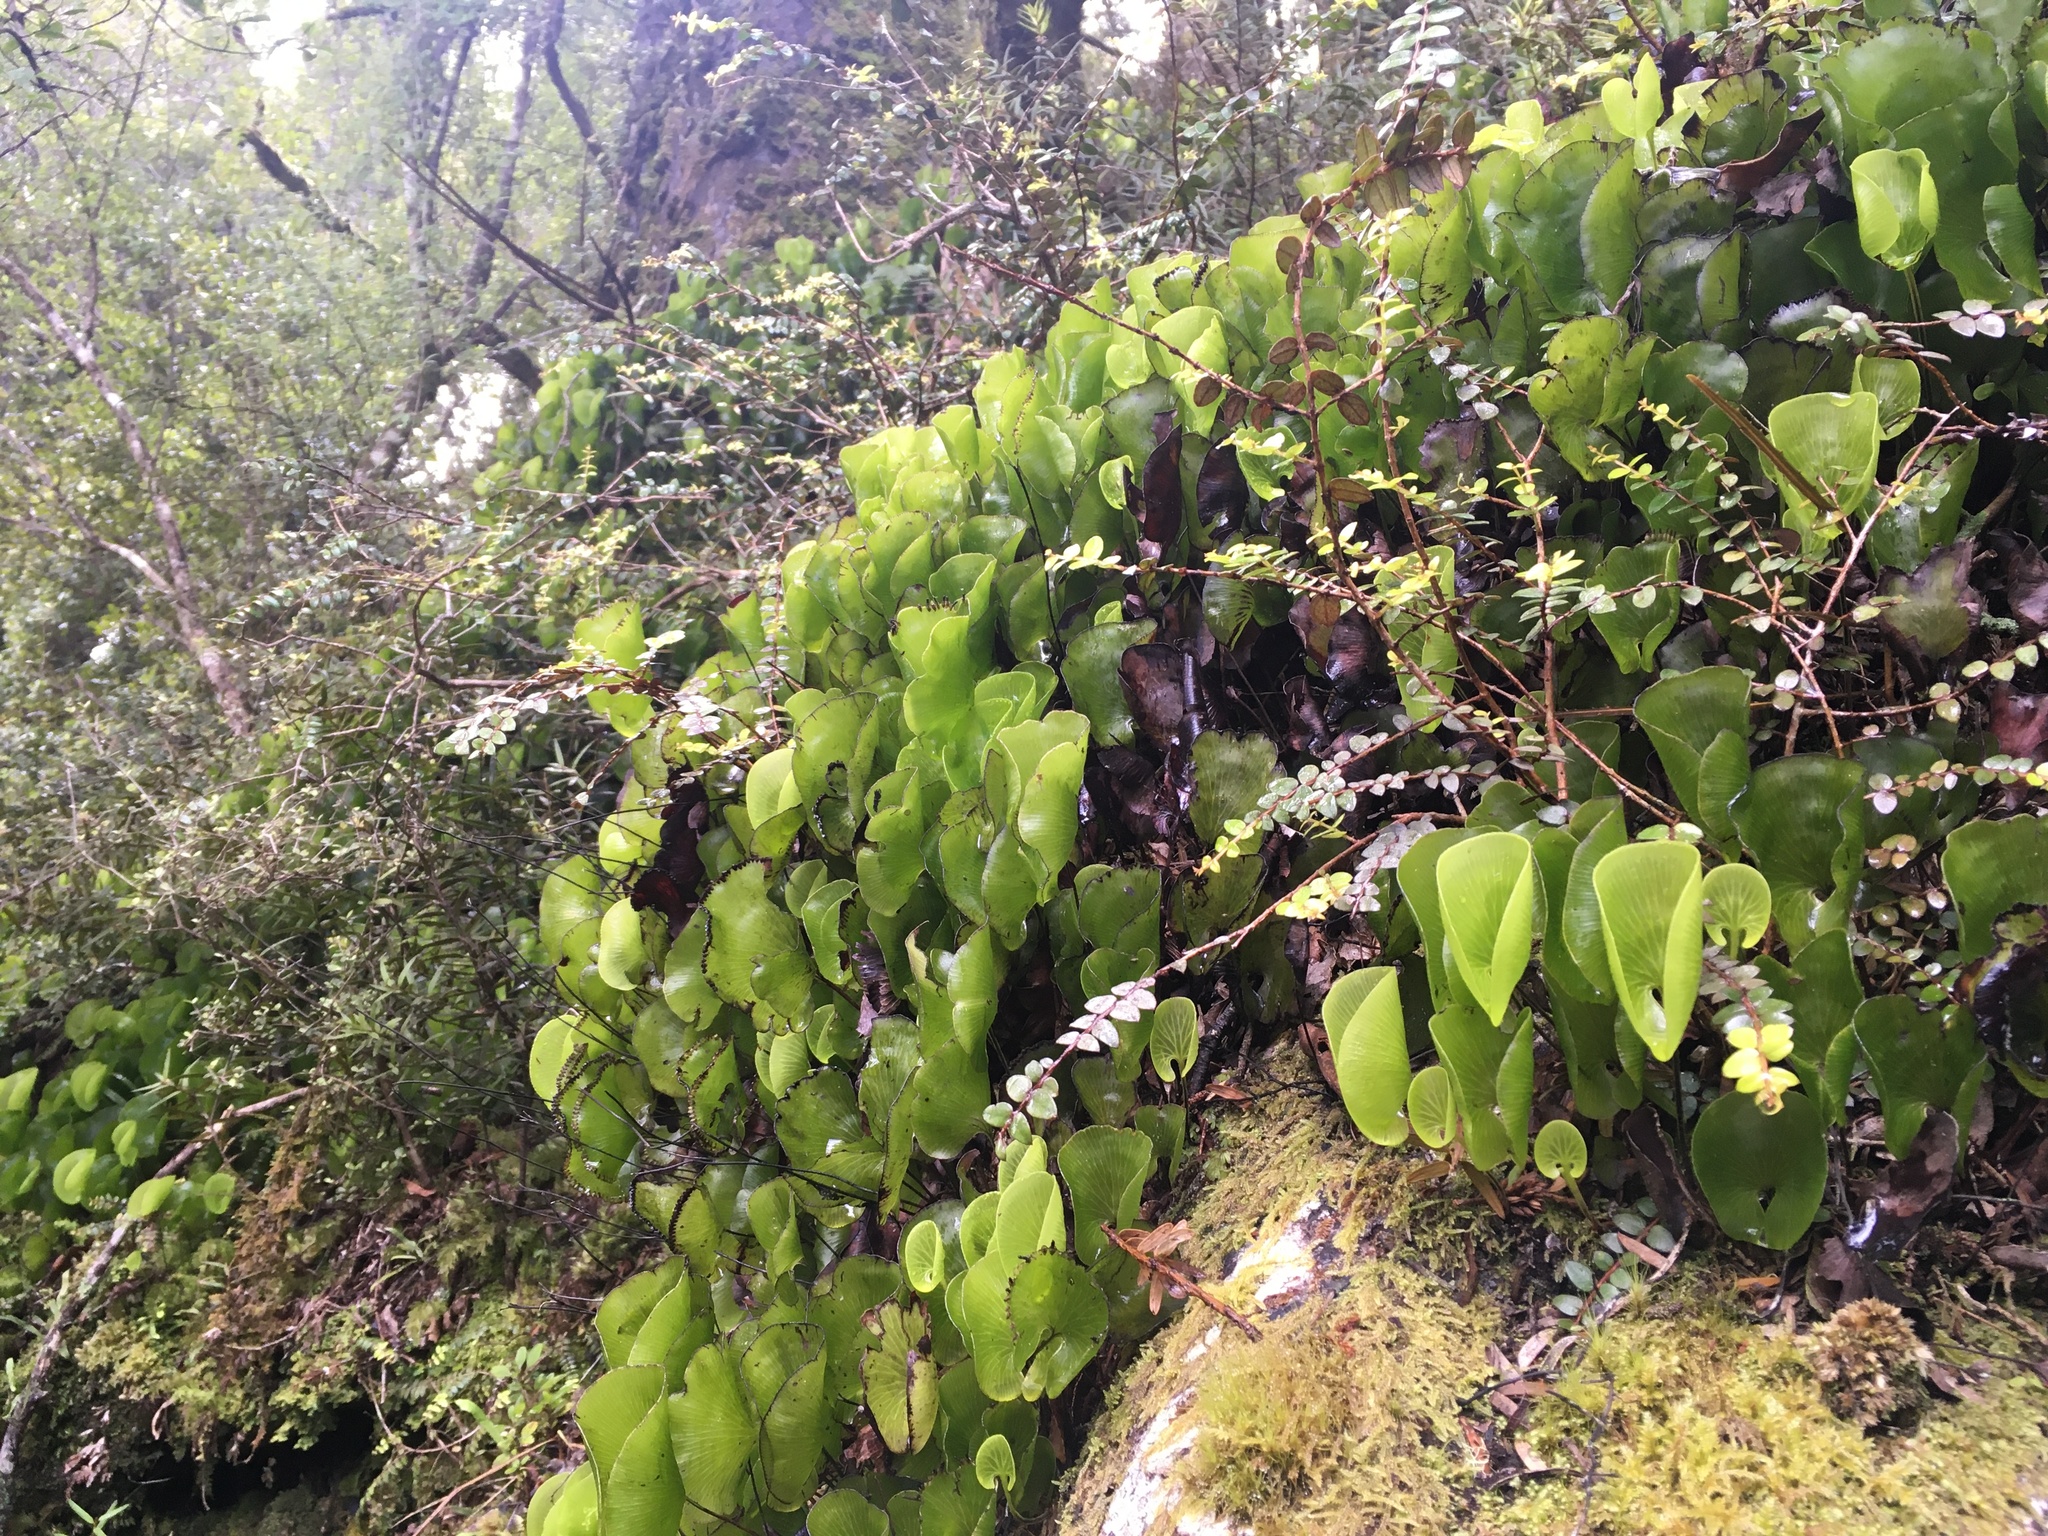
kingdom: Plantae
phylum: Tracheophyta
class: Polypodiopsida
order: Hymenophyllales
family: Hymenophyllaceae
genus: Hymenophyllum
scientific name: Hymenophyllum nephrophyllum
